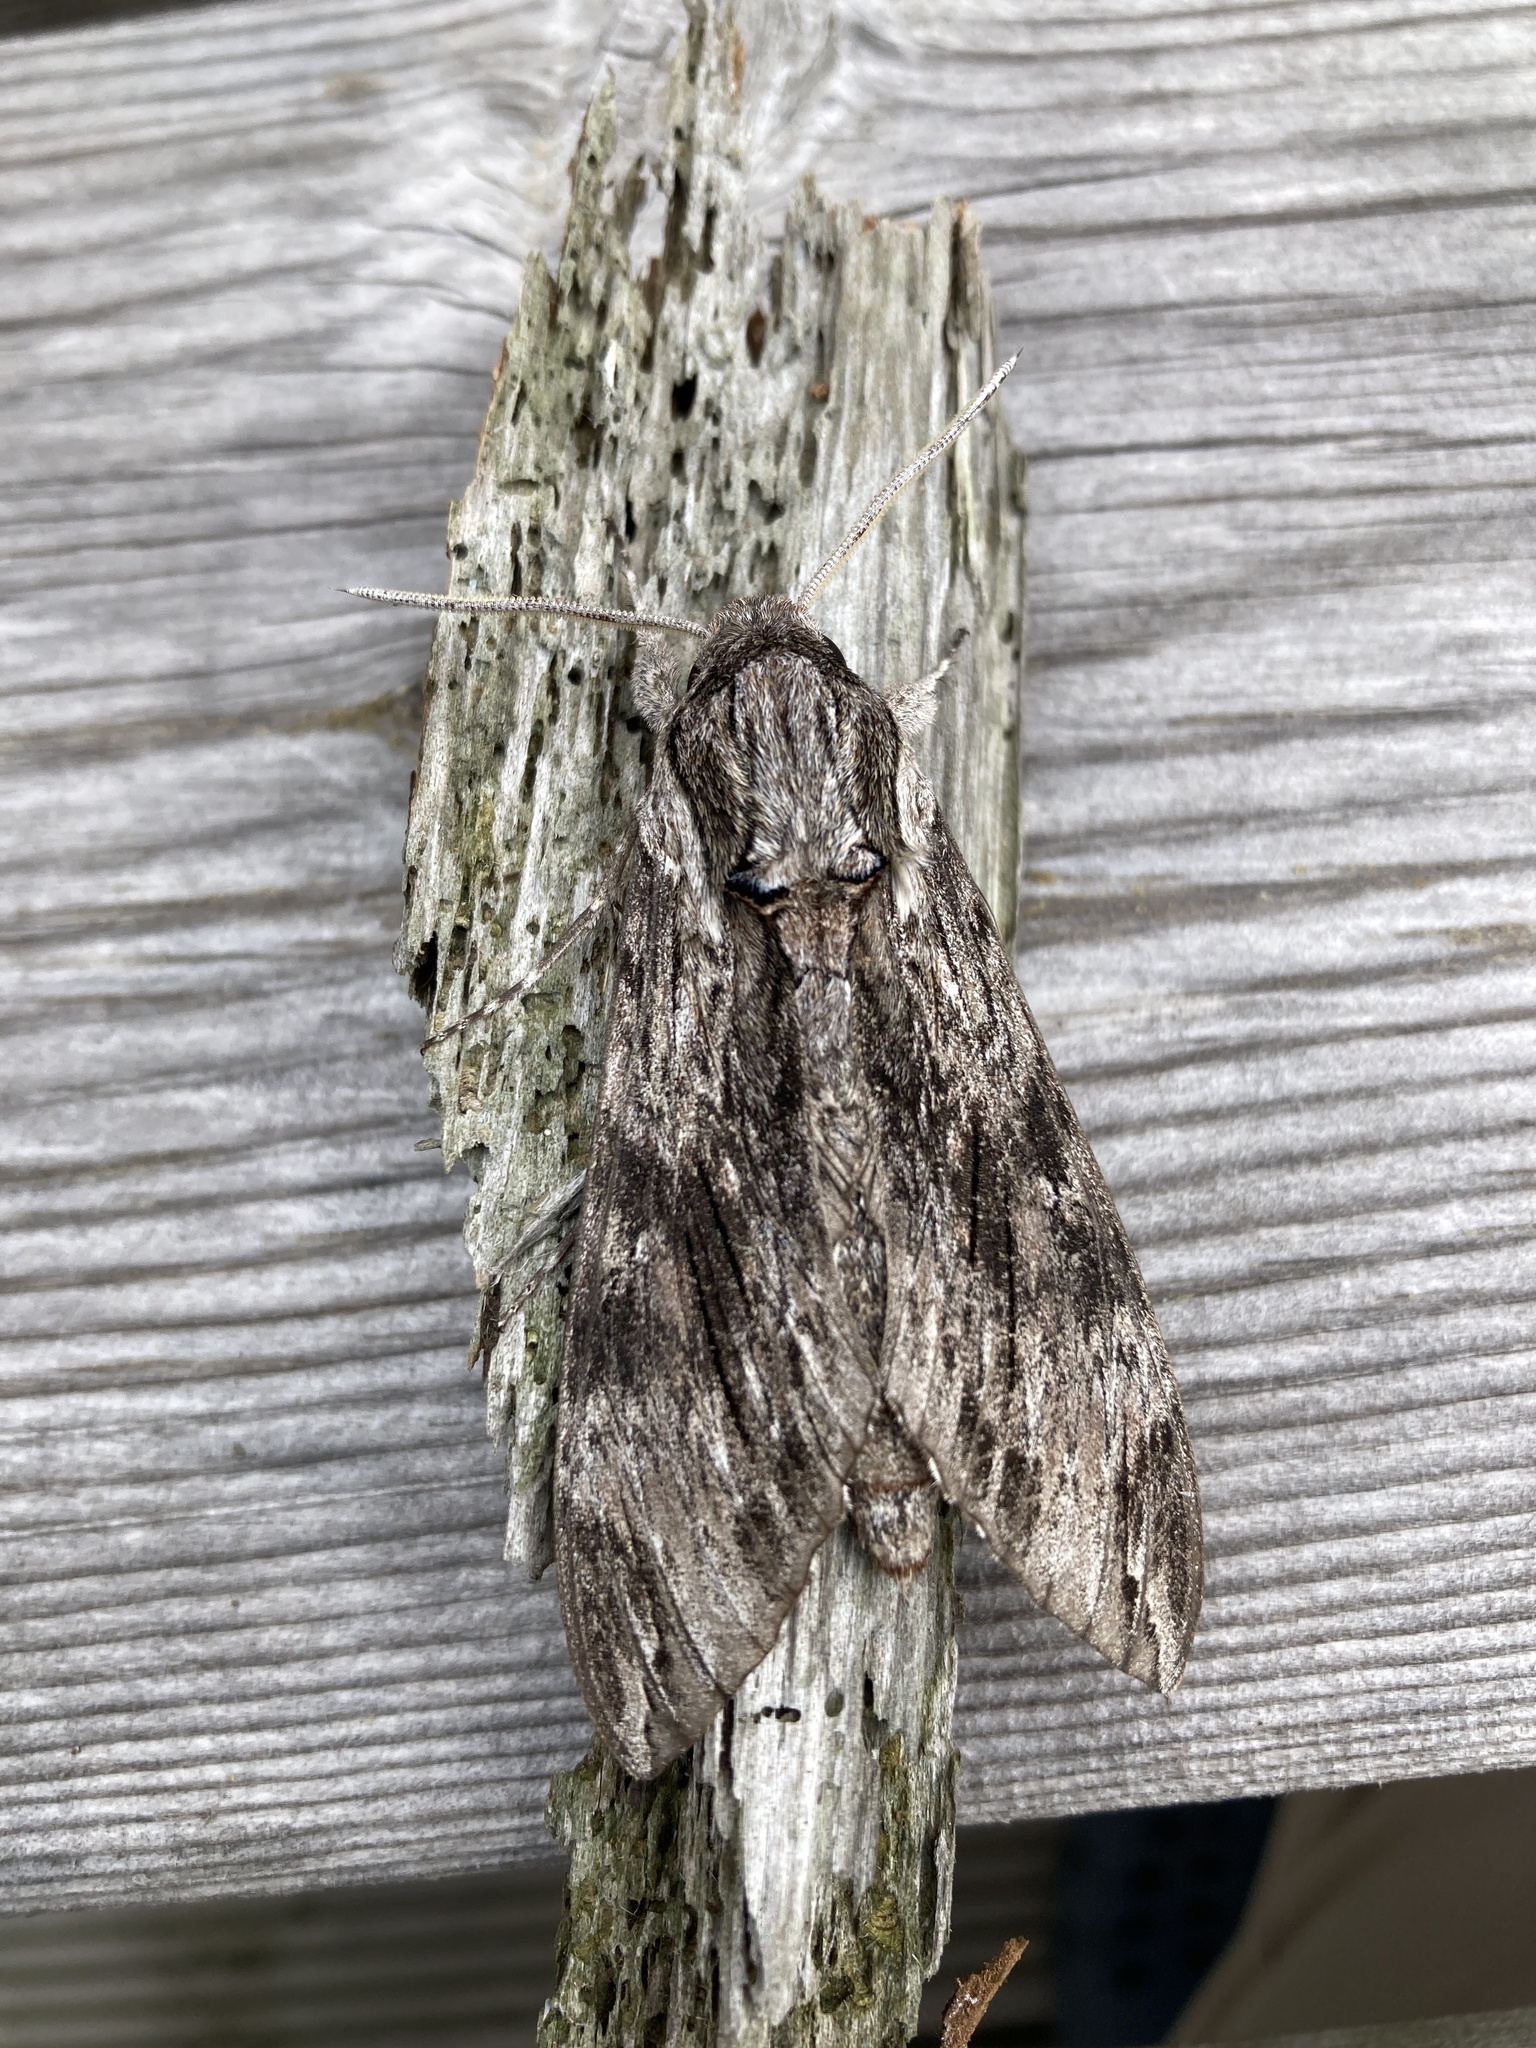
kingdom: Animalia
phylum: Arthropoda
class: Insecta
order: Lepidoptera
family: Sphingidae
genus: Agrius
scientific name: Agrius convolvuli
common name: Convolvulus hawkmoth
